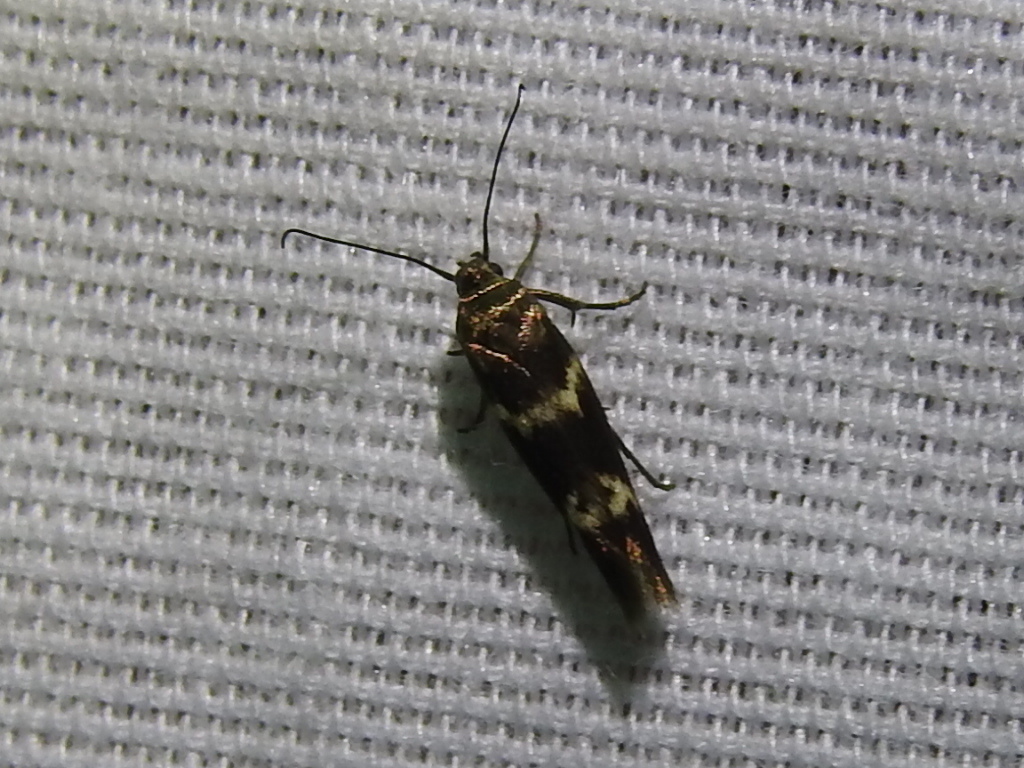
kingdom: Animalia
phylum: Arthropoda
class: Insecta
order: Lepidoptera
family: Scythrididae
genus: Scythris
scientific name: Scythris trivinctella
